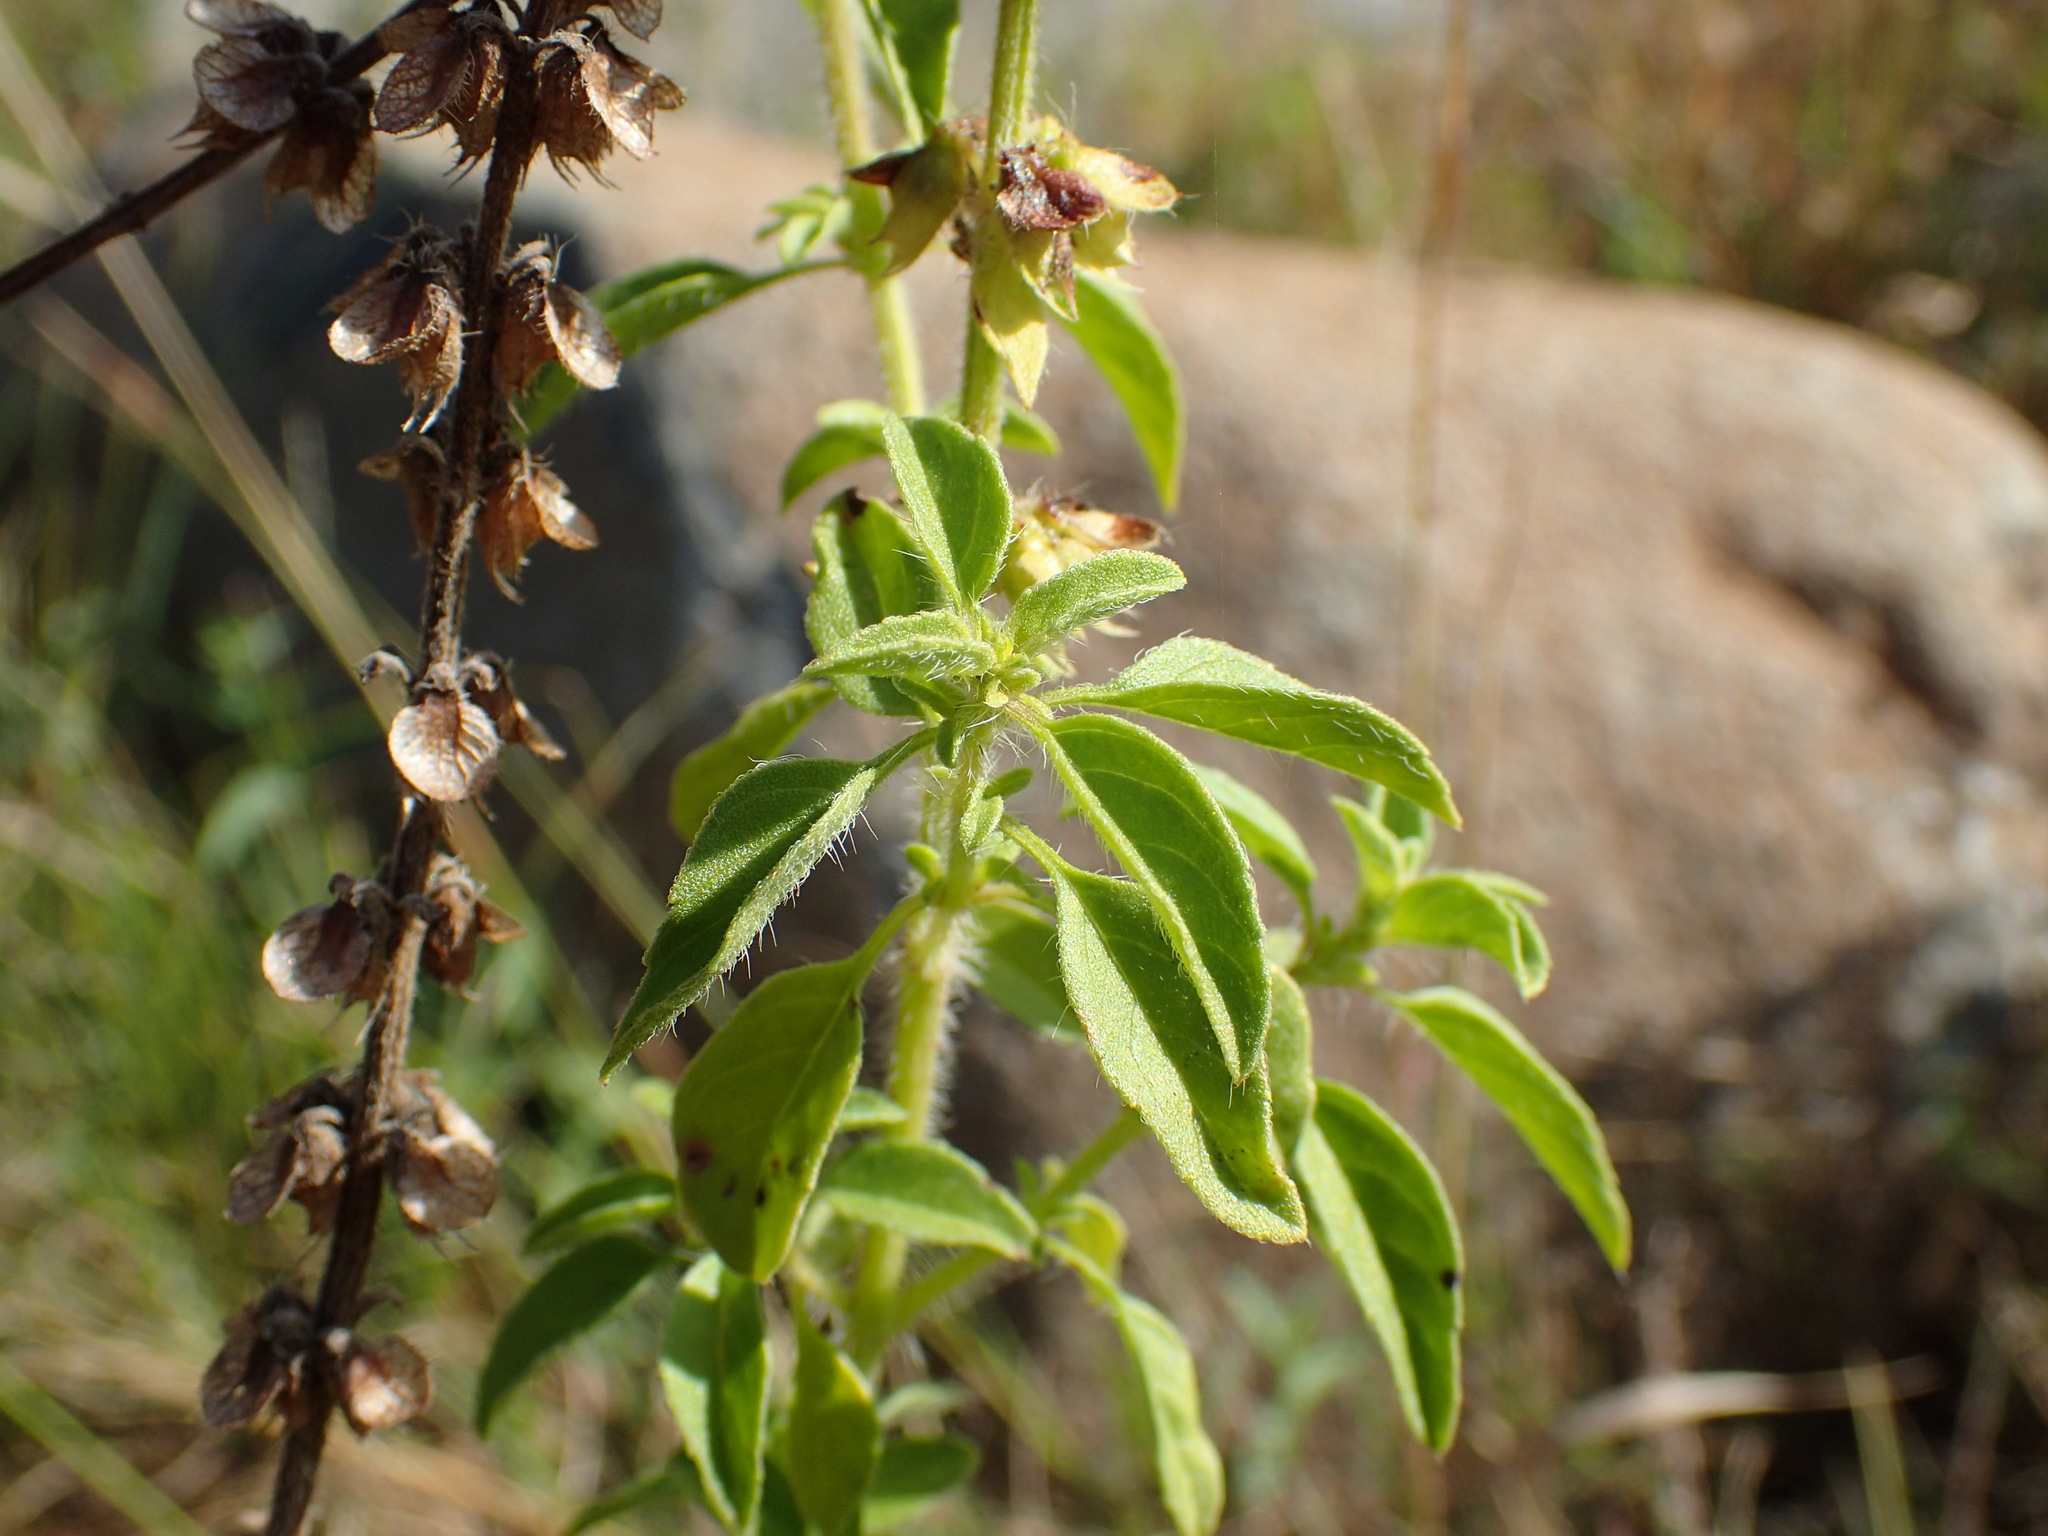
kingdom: Plantae
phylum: Tracheophyta
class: Magnoliopsida
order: Lamiales
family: Lamiaceae
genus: Ocimum
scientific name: Ocimum americanum
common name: American basil
